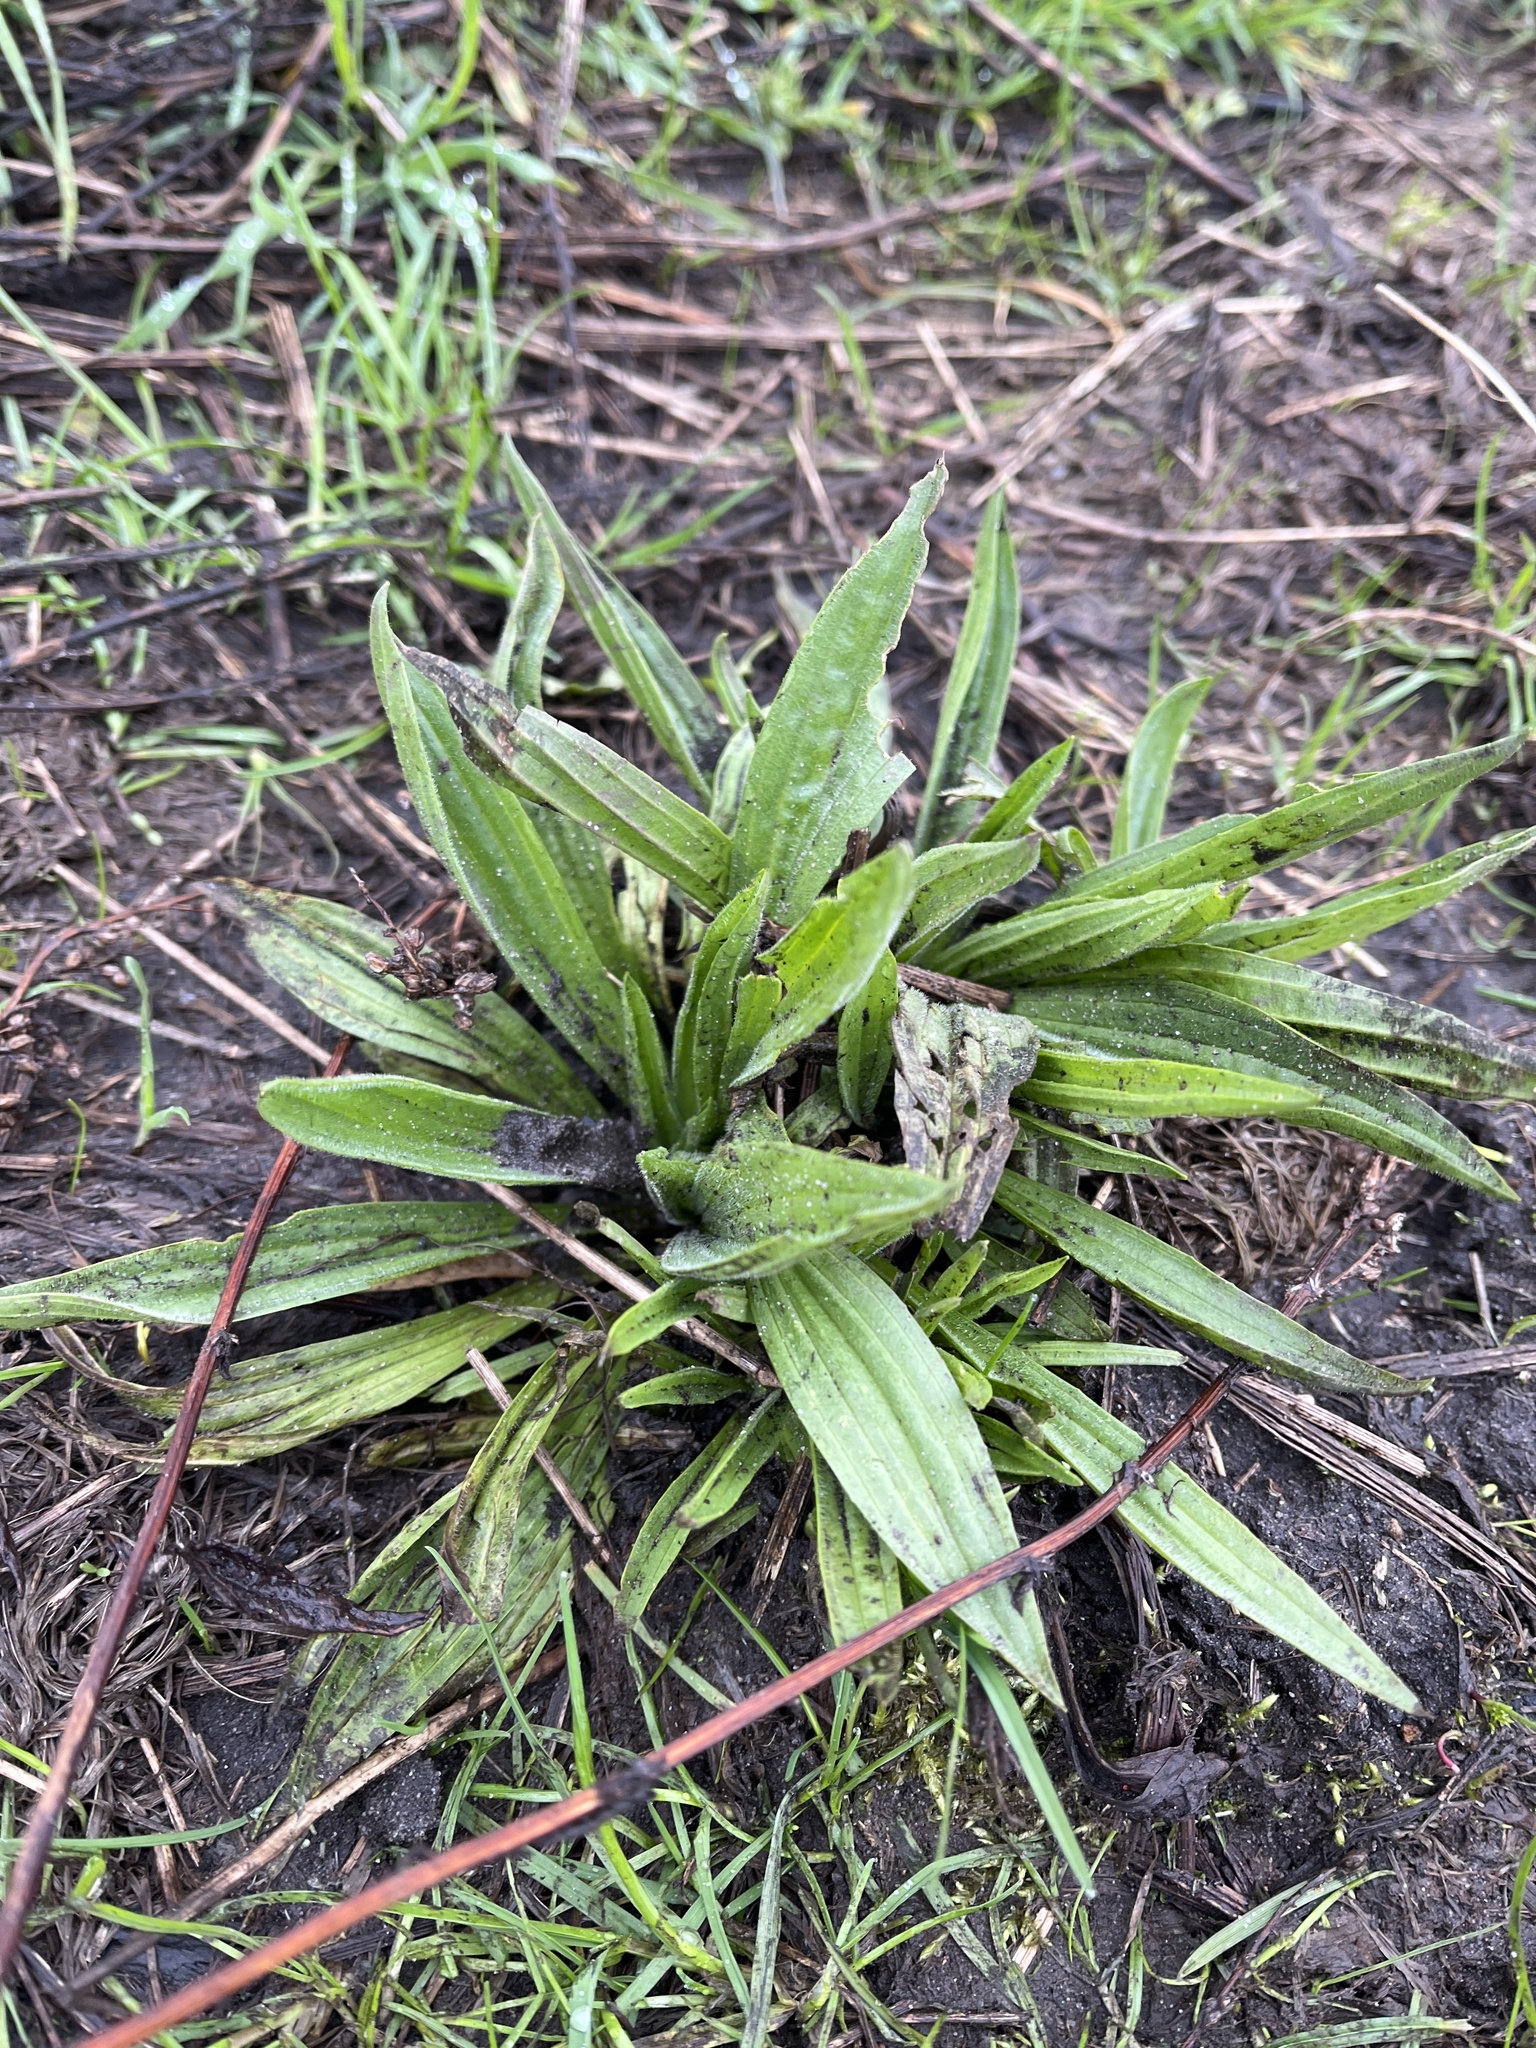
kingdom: Plantae
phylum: Tracheophyta
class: Magnoliopsida
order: Lamiales
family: Plantaginaceae
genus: Plantago
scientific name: Plantago lanceolata
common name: Ribwort plantain
